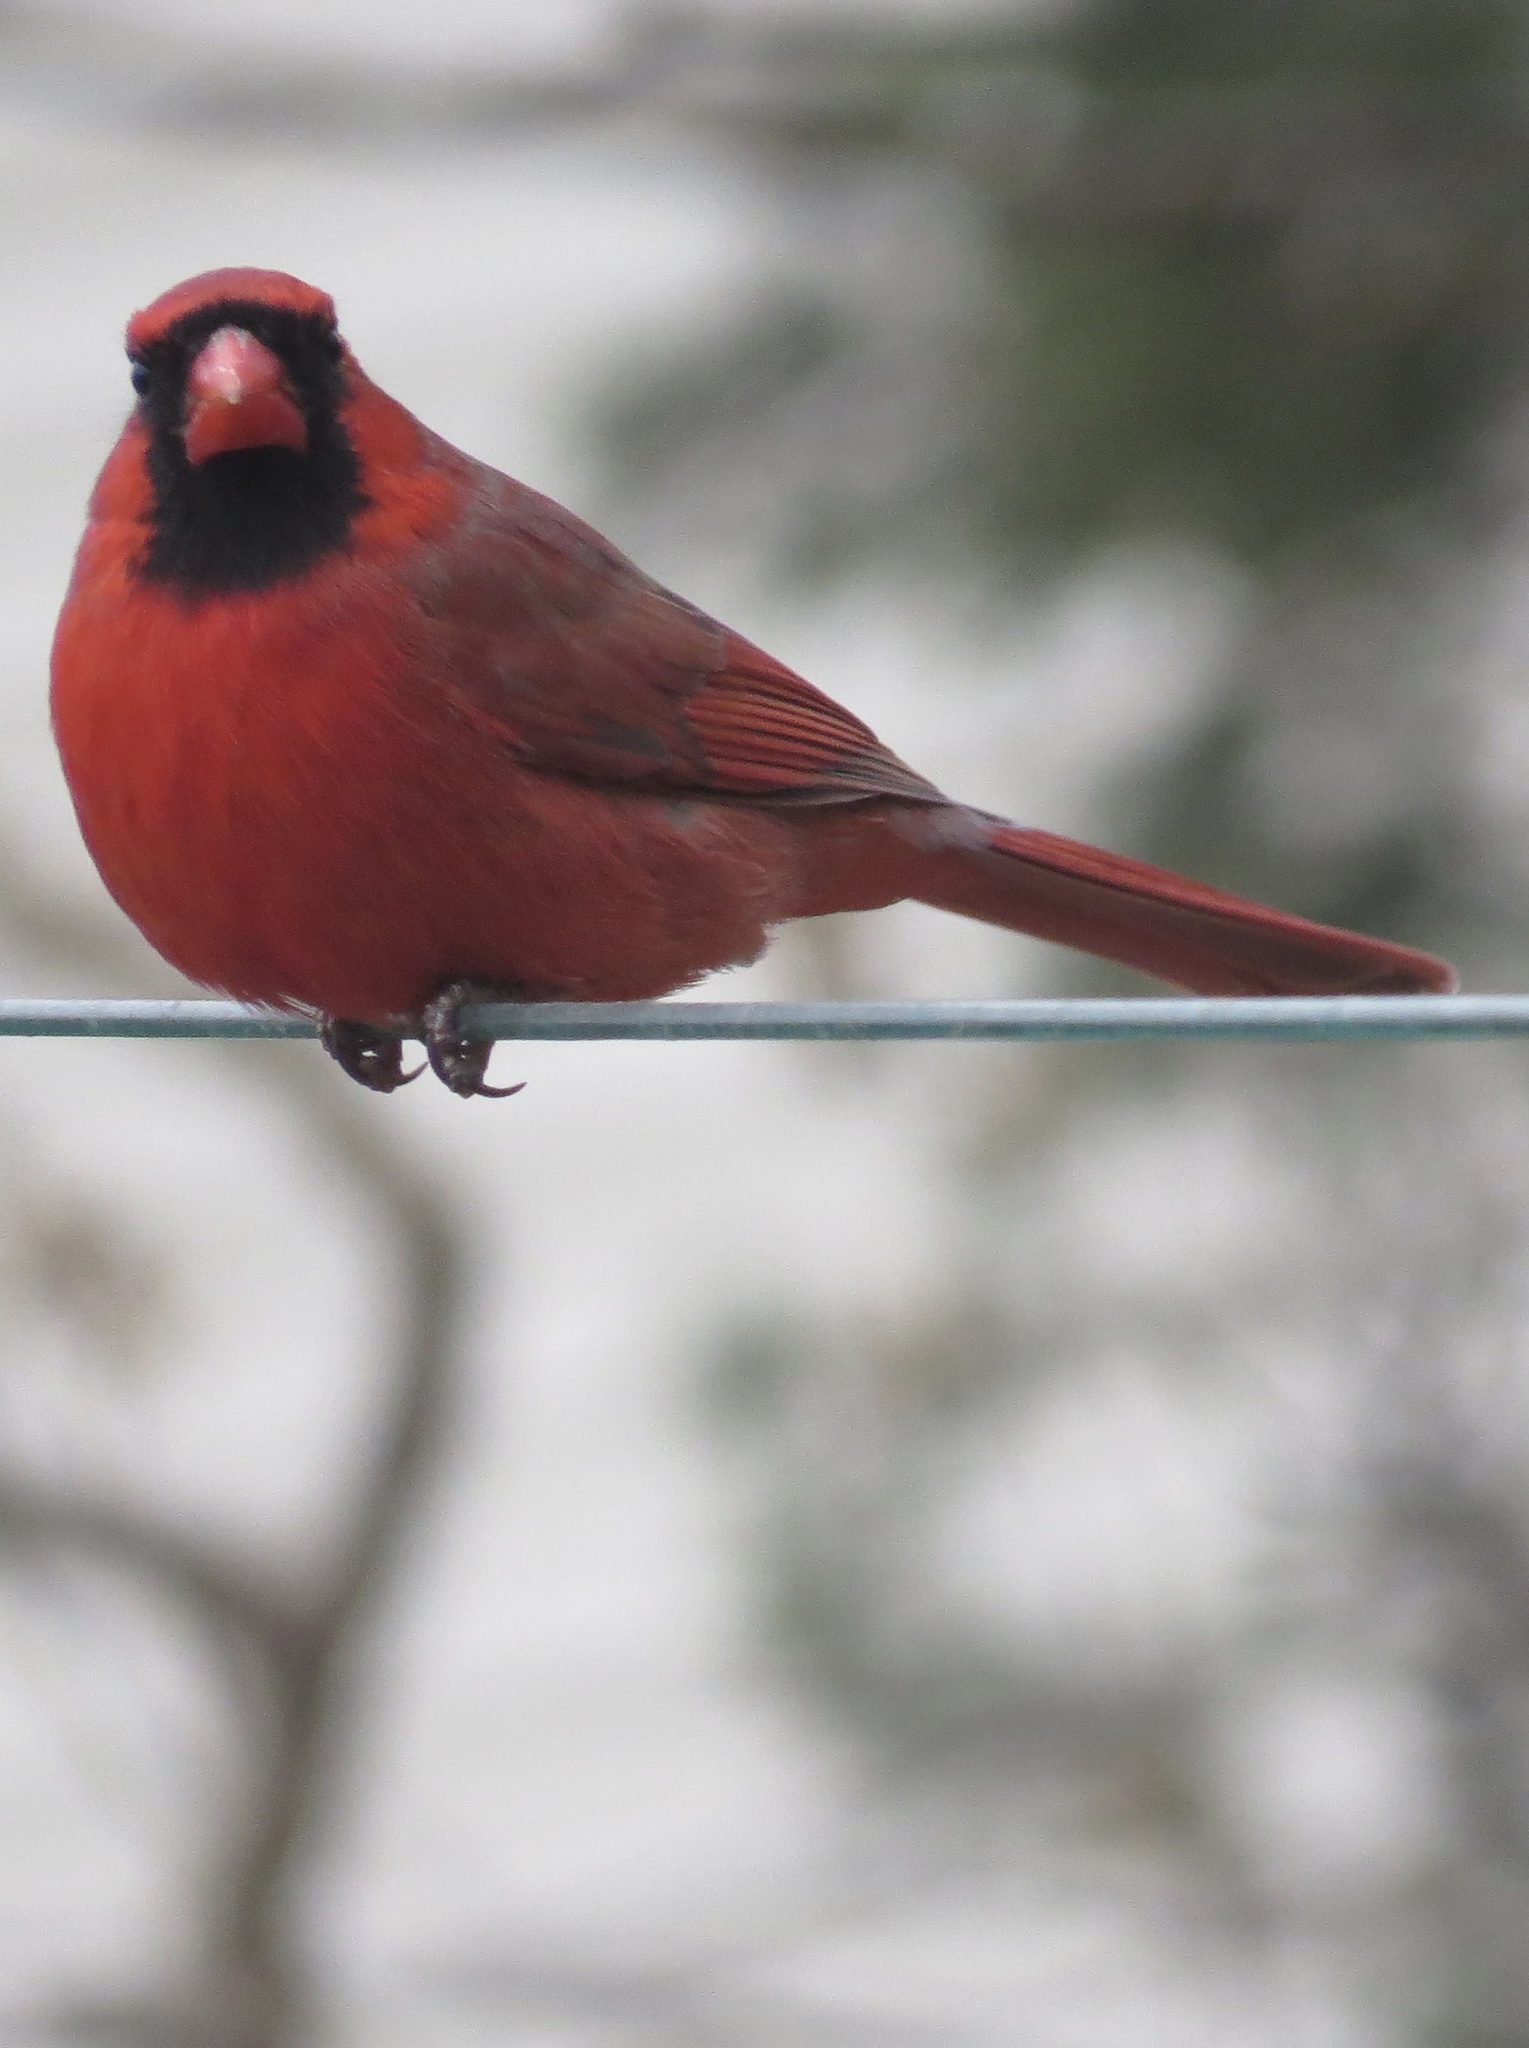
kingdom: Animalia
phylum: Chordata
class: Aves
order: Passeriformes
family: Cardinalidae
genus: Cardinalis
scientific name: Cardinalis cardinalis
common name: Northern cardinal
